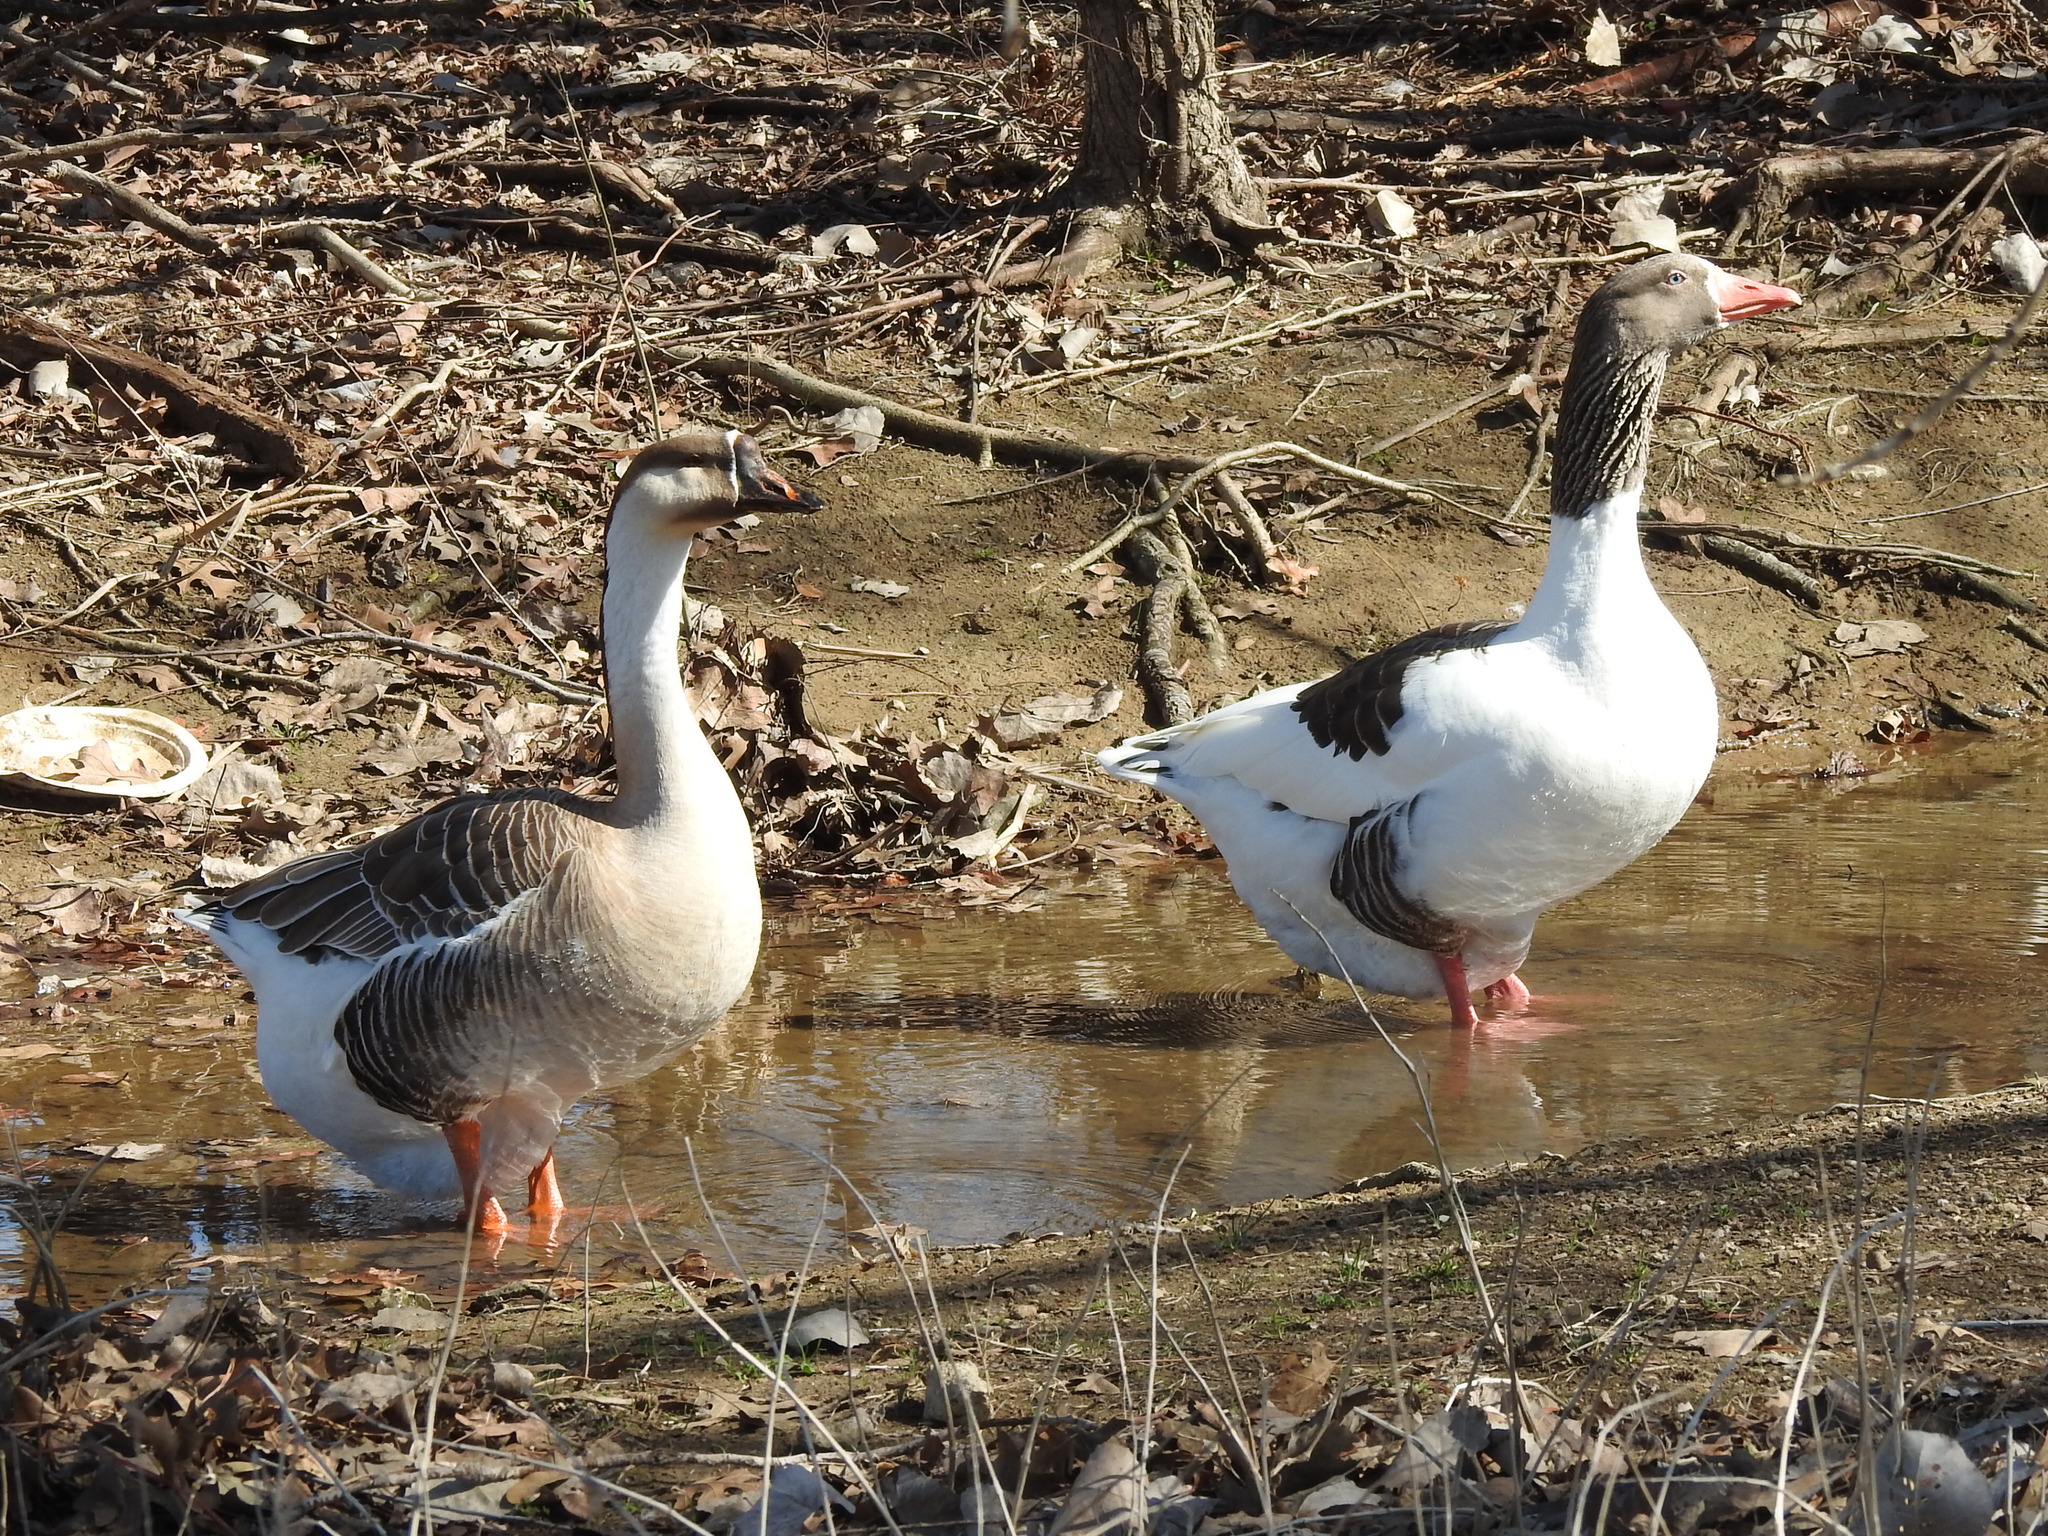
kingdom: Animalia
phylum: Chordata
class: Aves
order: Anseriformes
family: Anatidae
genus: Anser
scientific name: Anser cygnoides
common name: Swan goose
